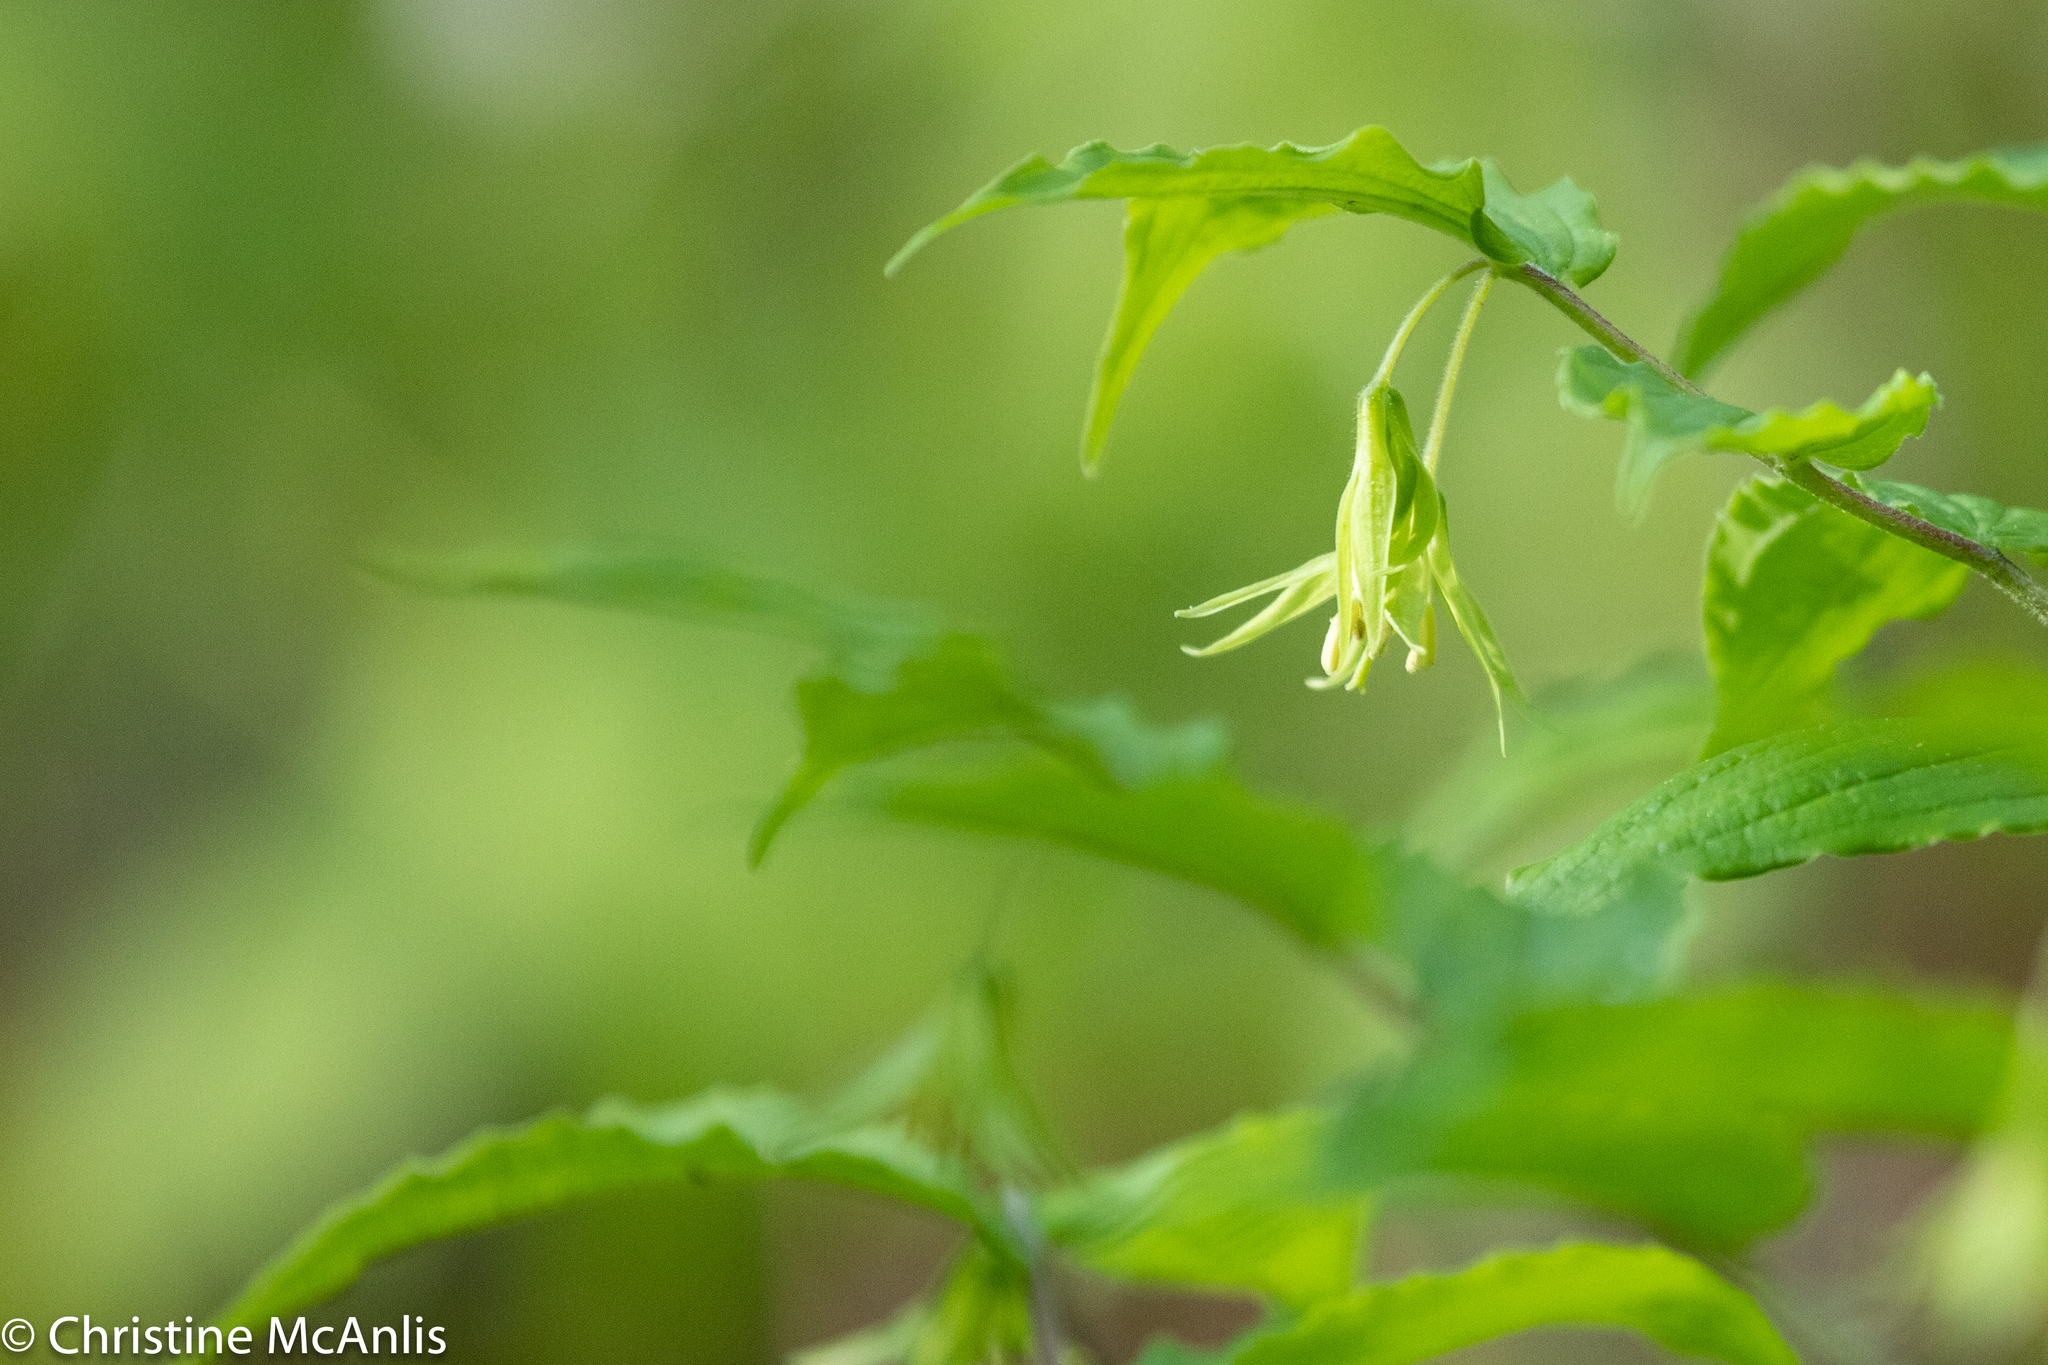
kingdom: Plantae
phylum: Tracheophyta
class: Liliopsida
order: Liliales
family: Liliaceae
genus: Prosartes
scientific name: Prosartes lanuginosa
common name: Hairy mandarin
